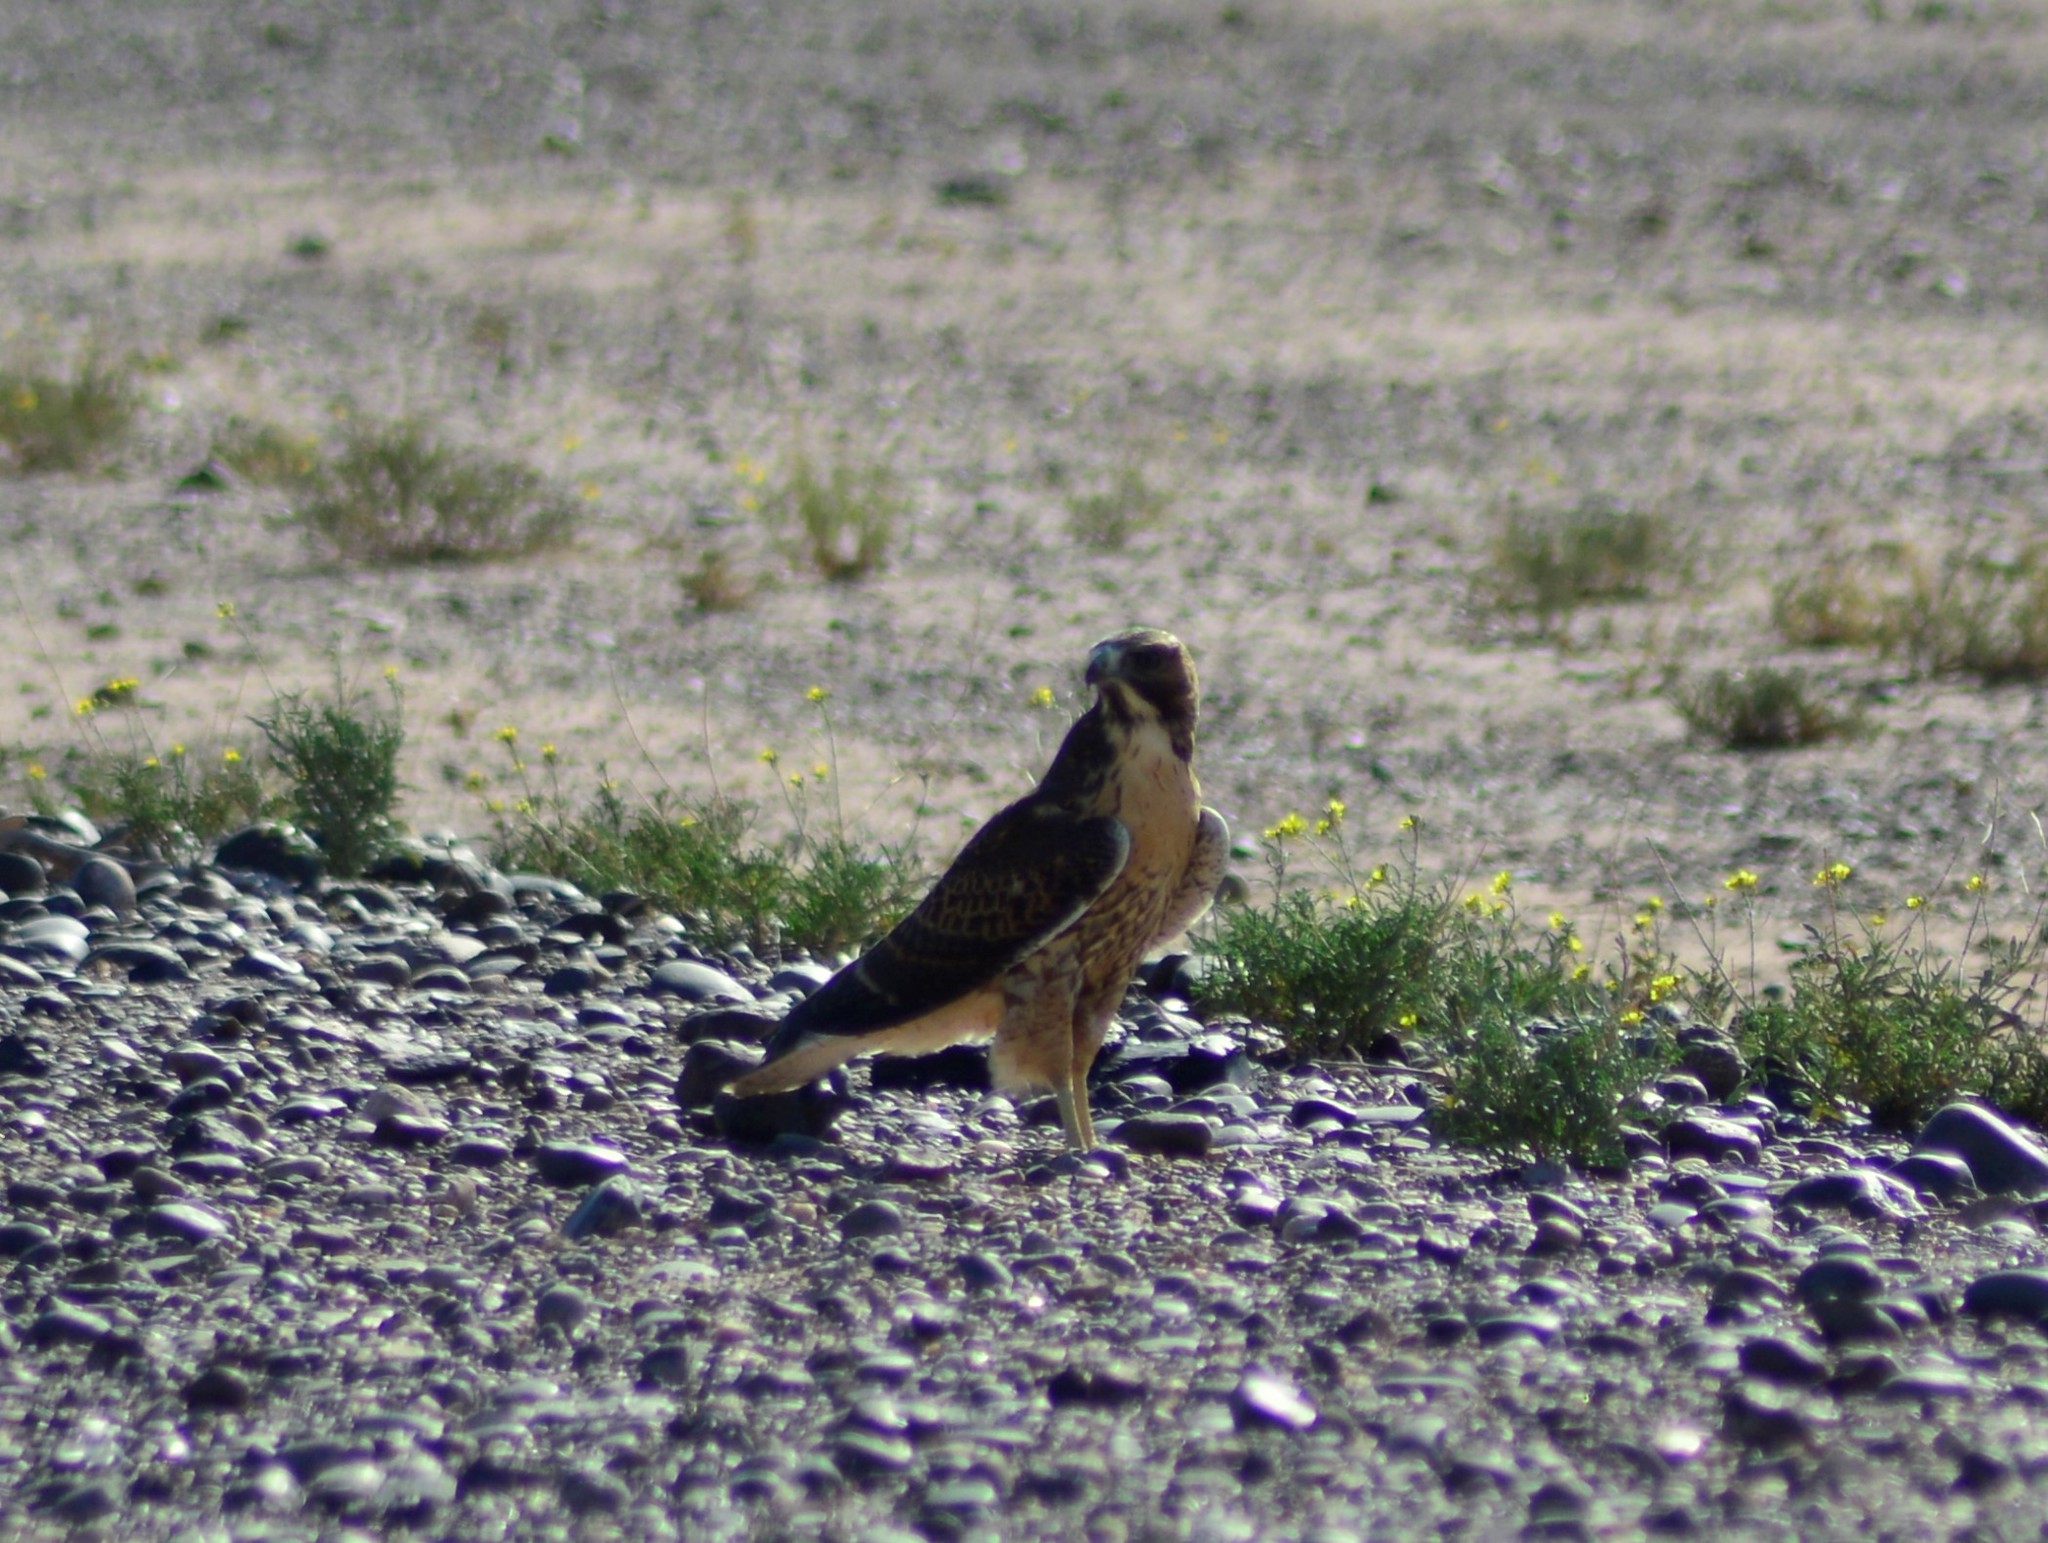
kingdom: Animalia
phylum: Chordata
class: Aves
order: Accipitriformes
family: Accipitridae
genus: Buteo
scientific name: Buteo polyosoma
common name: Variable hawk
